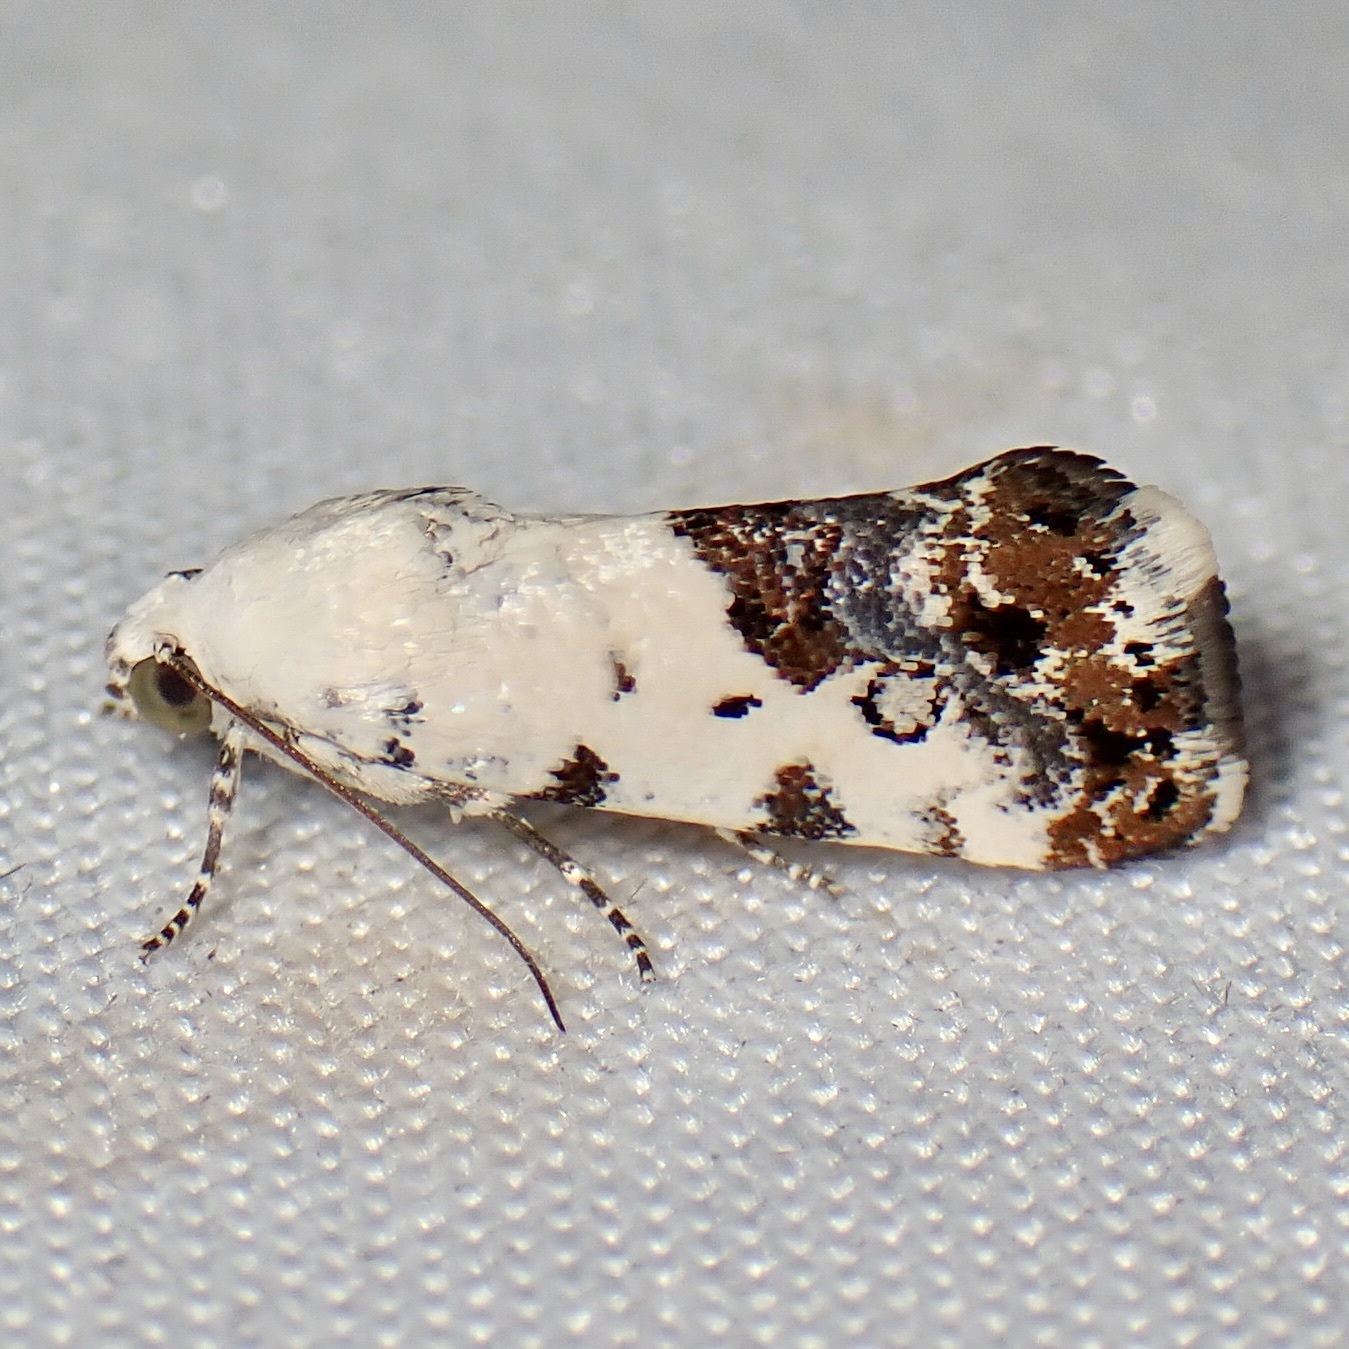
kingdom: Animalia
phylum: Arthropoda
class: Insecta
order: Lepidoptera
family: Noctuidae
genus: Acontia
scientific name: Acontia phecolisca
